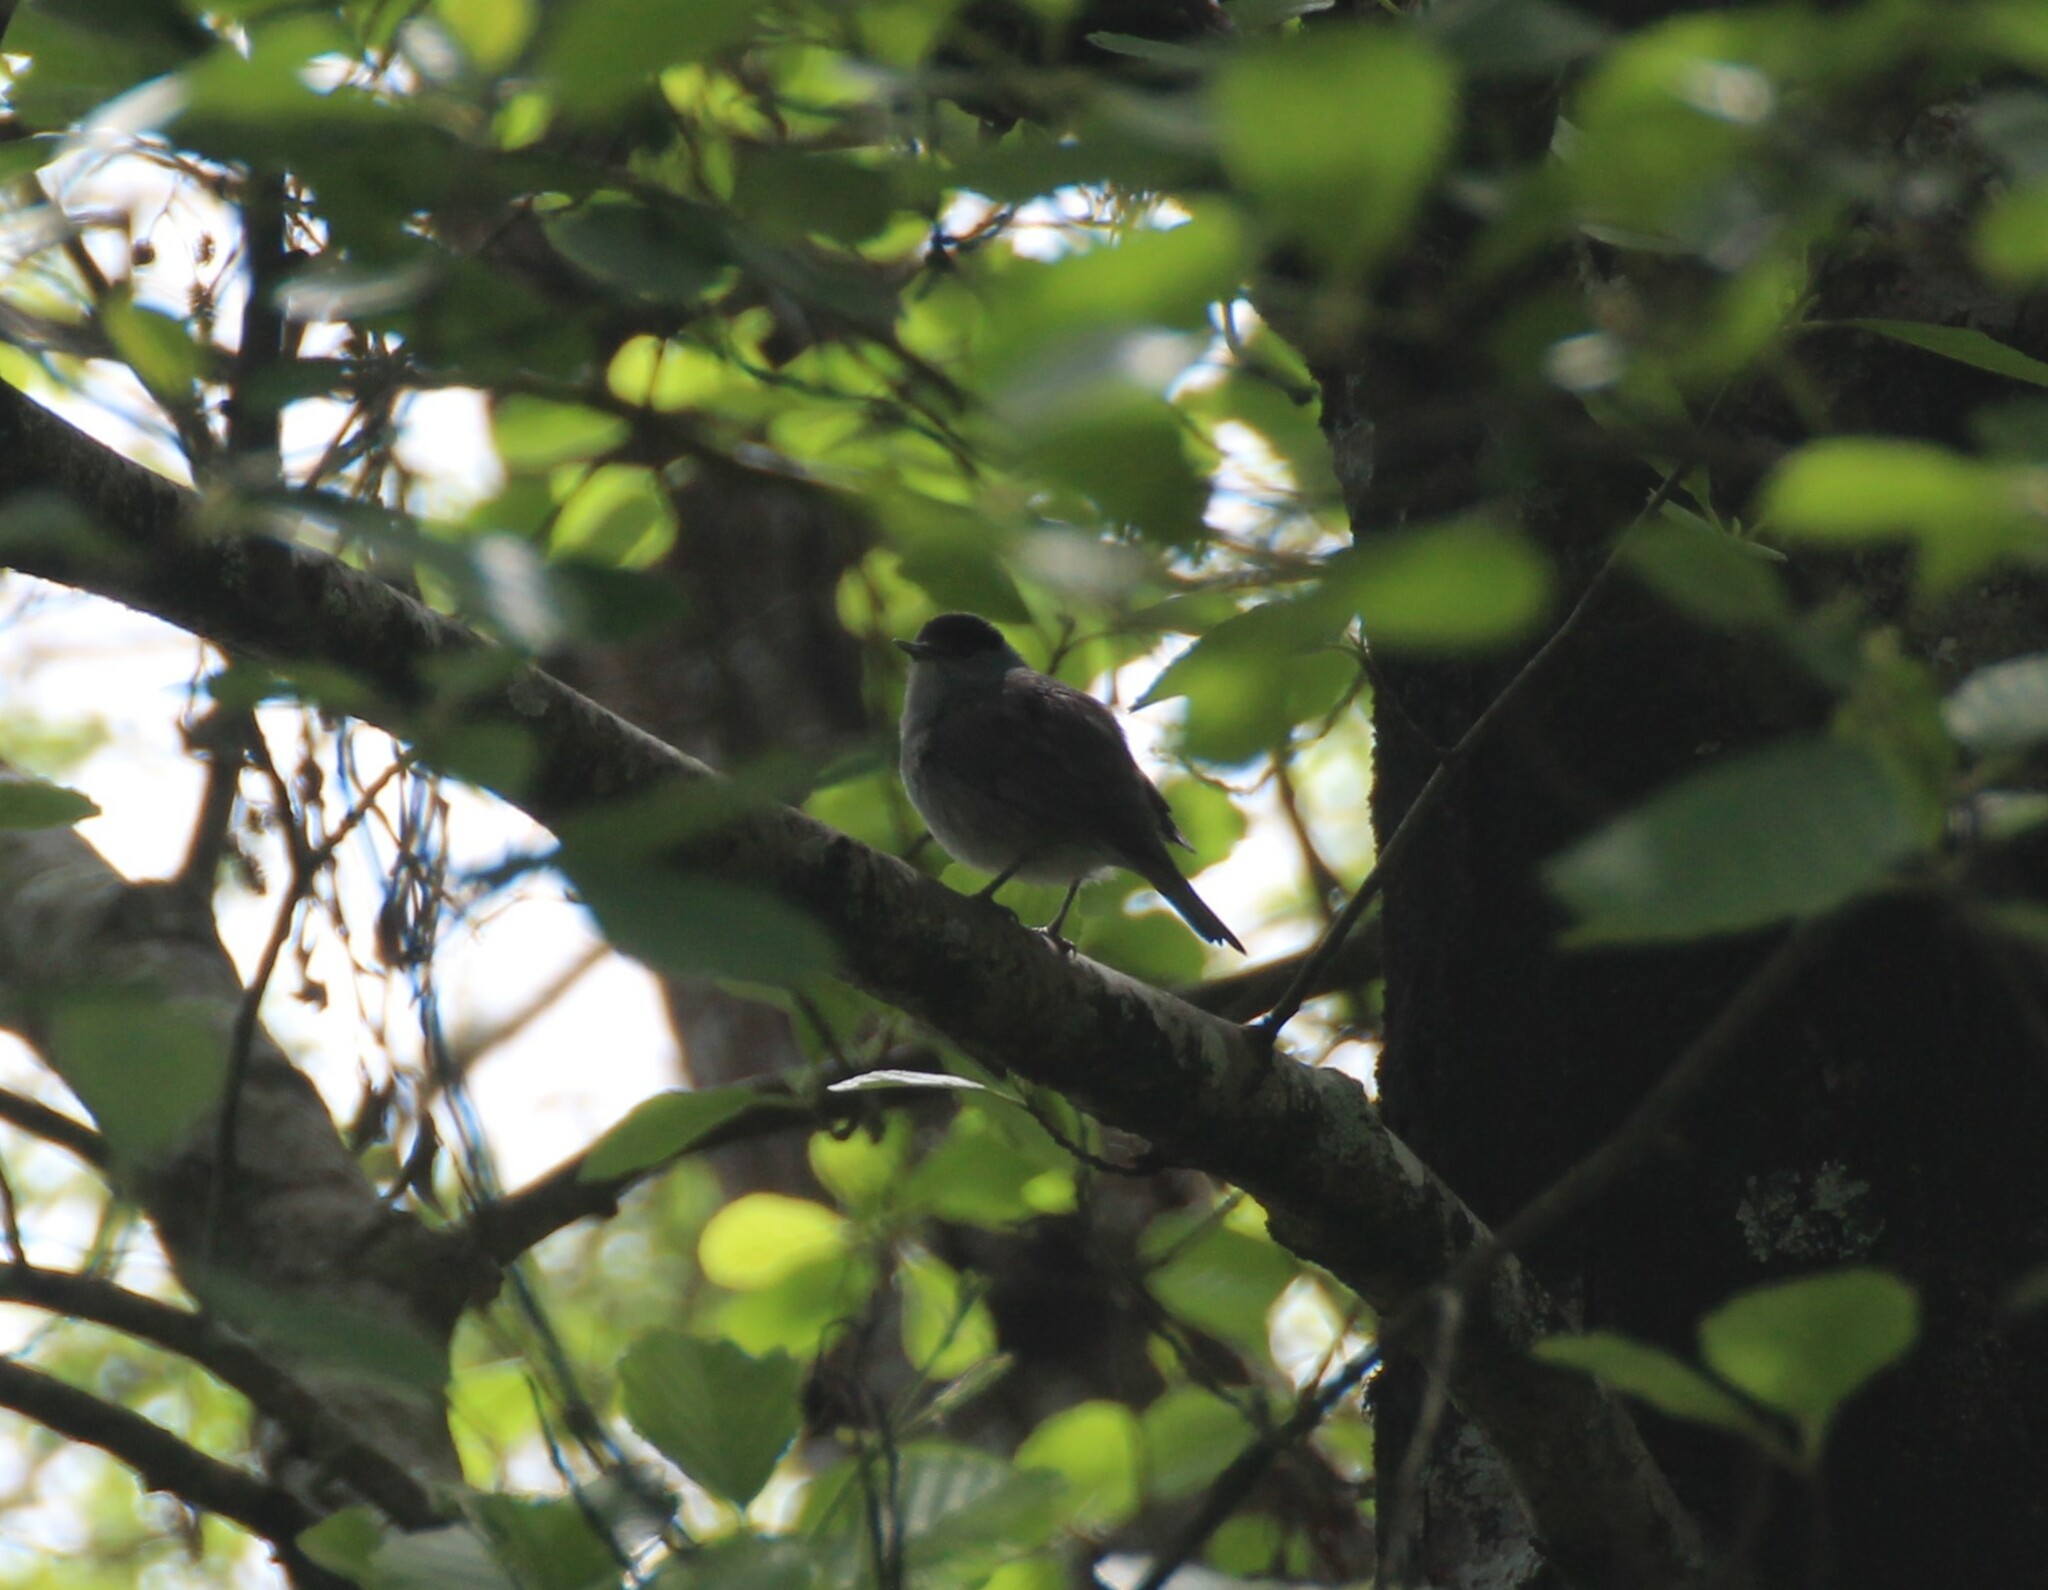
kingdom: Animalia
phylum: Chordata
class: Aves
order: Passeriformes
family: Sylviidae
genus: Sylvia
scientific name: Sylvia atricapilla
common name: Eurasian blackcap
